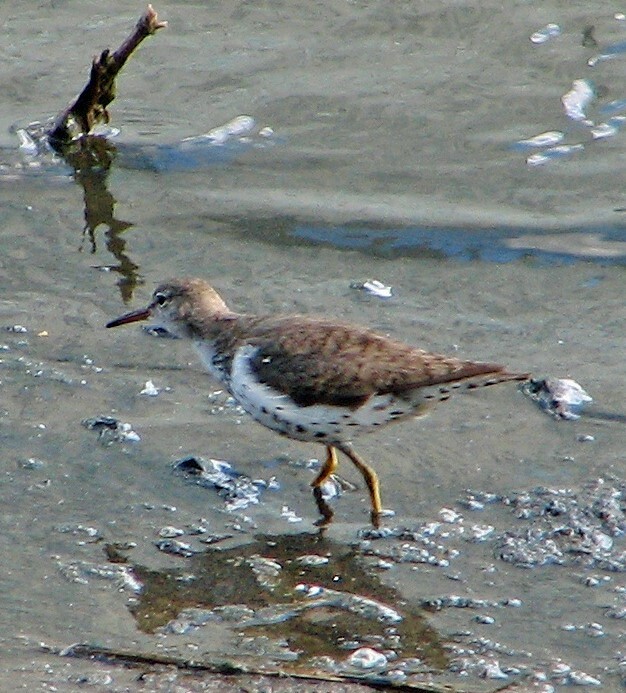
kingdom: Animalia
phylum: Chordata
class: Aves
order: Charadriiformes
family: Scolopacidae
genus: Actitis
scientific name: Actitis macularius
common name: Spotted sandpiper
